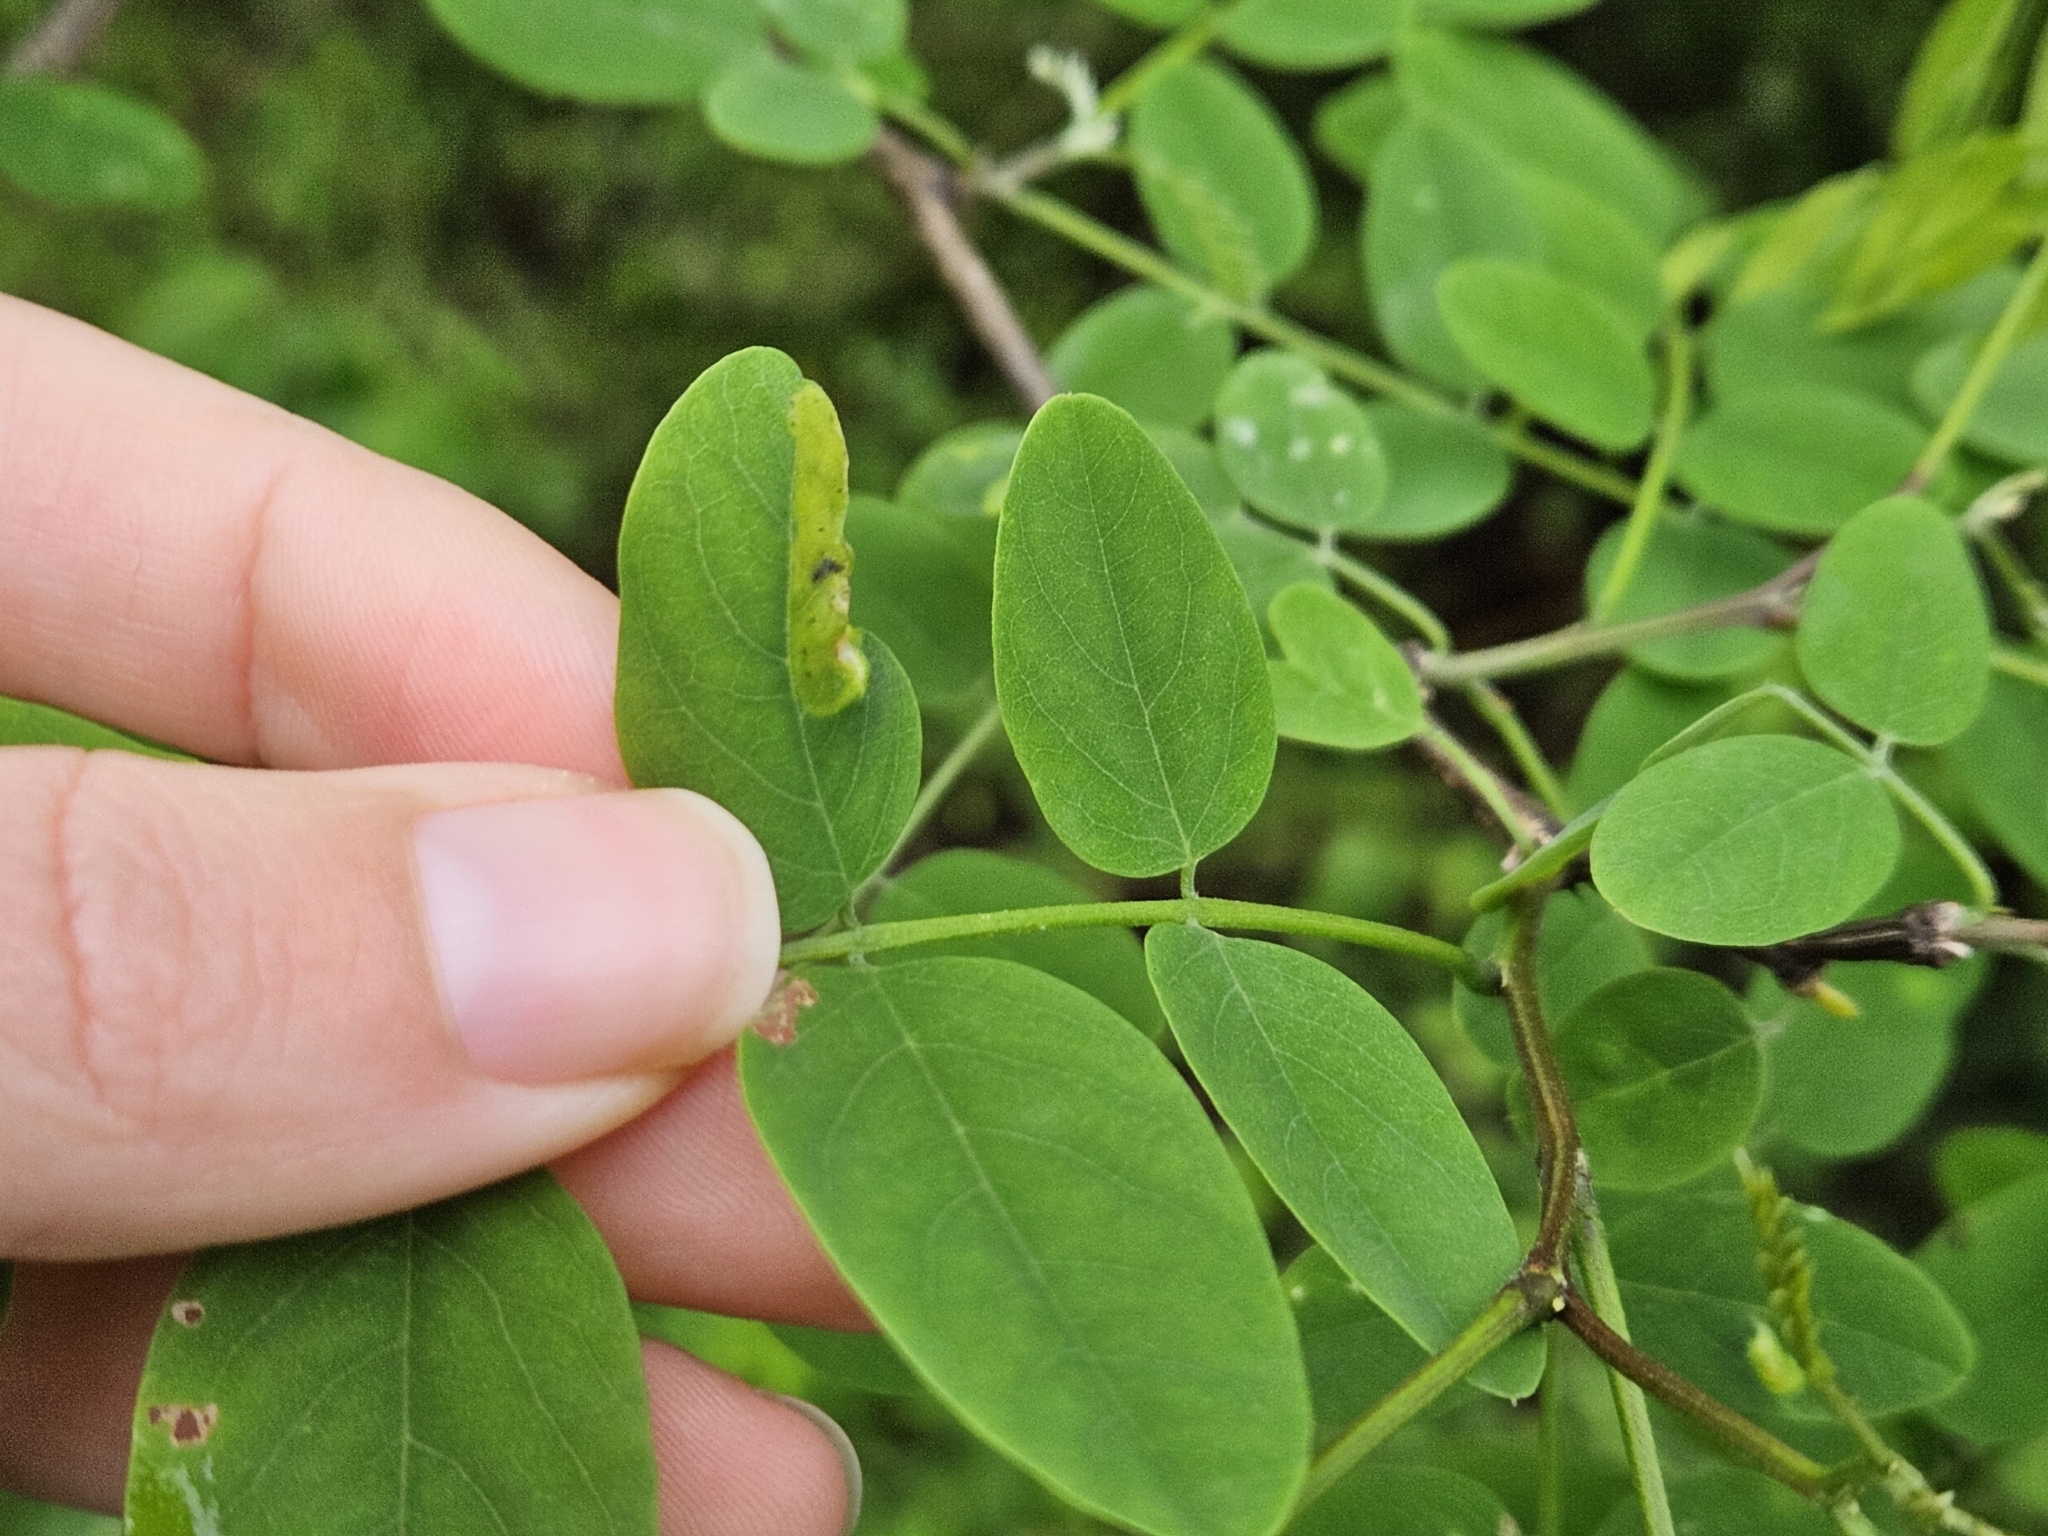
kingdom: Plantae
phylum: Tracheophyta
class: Magnoliopsida
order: Fabales
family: Fabaceae
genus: Robinia
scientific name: Robinia pseudoacacia
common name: Black locust
